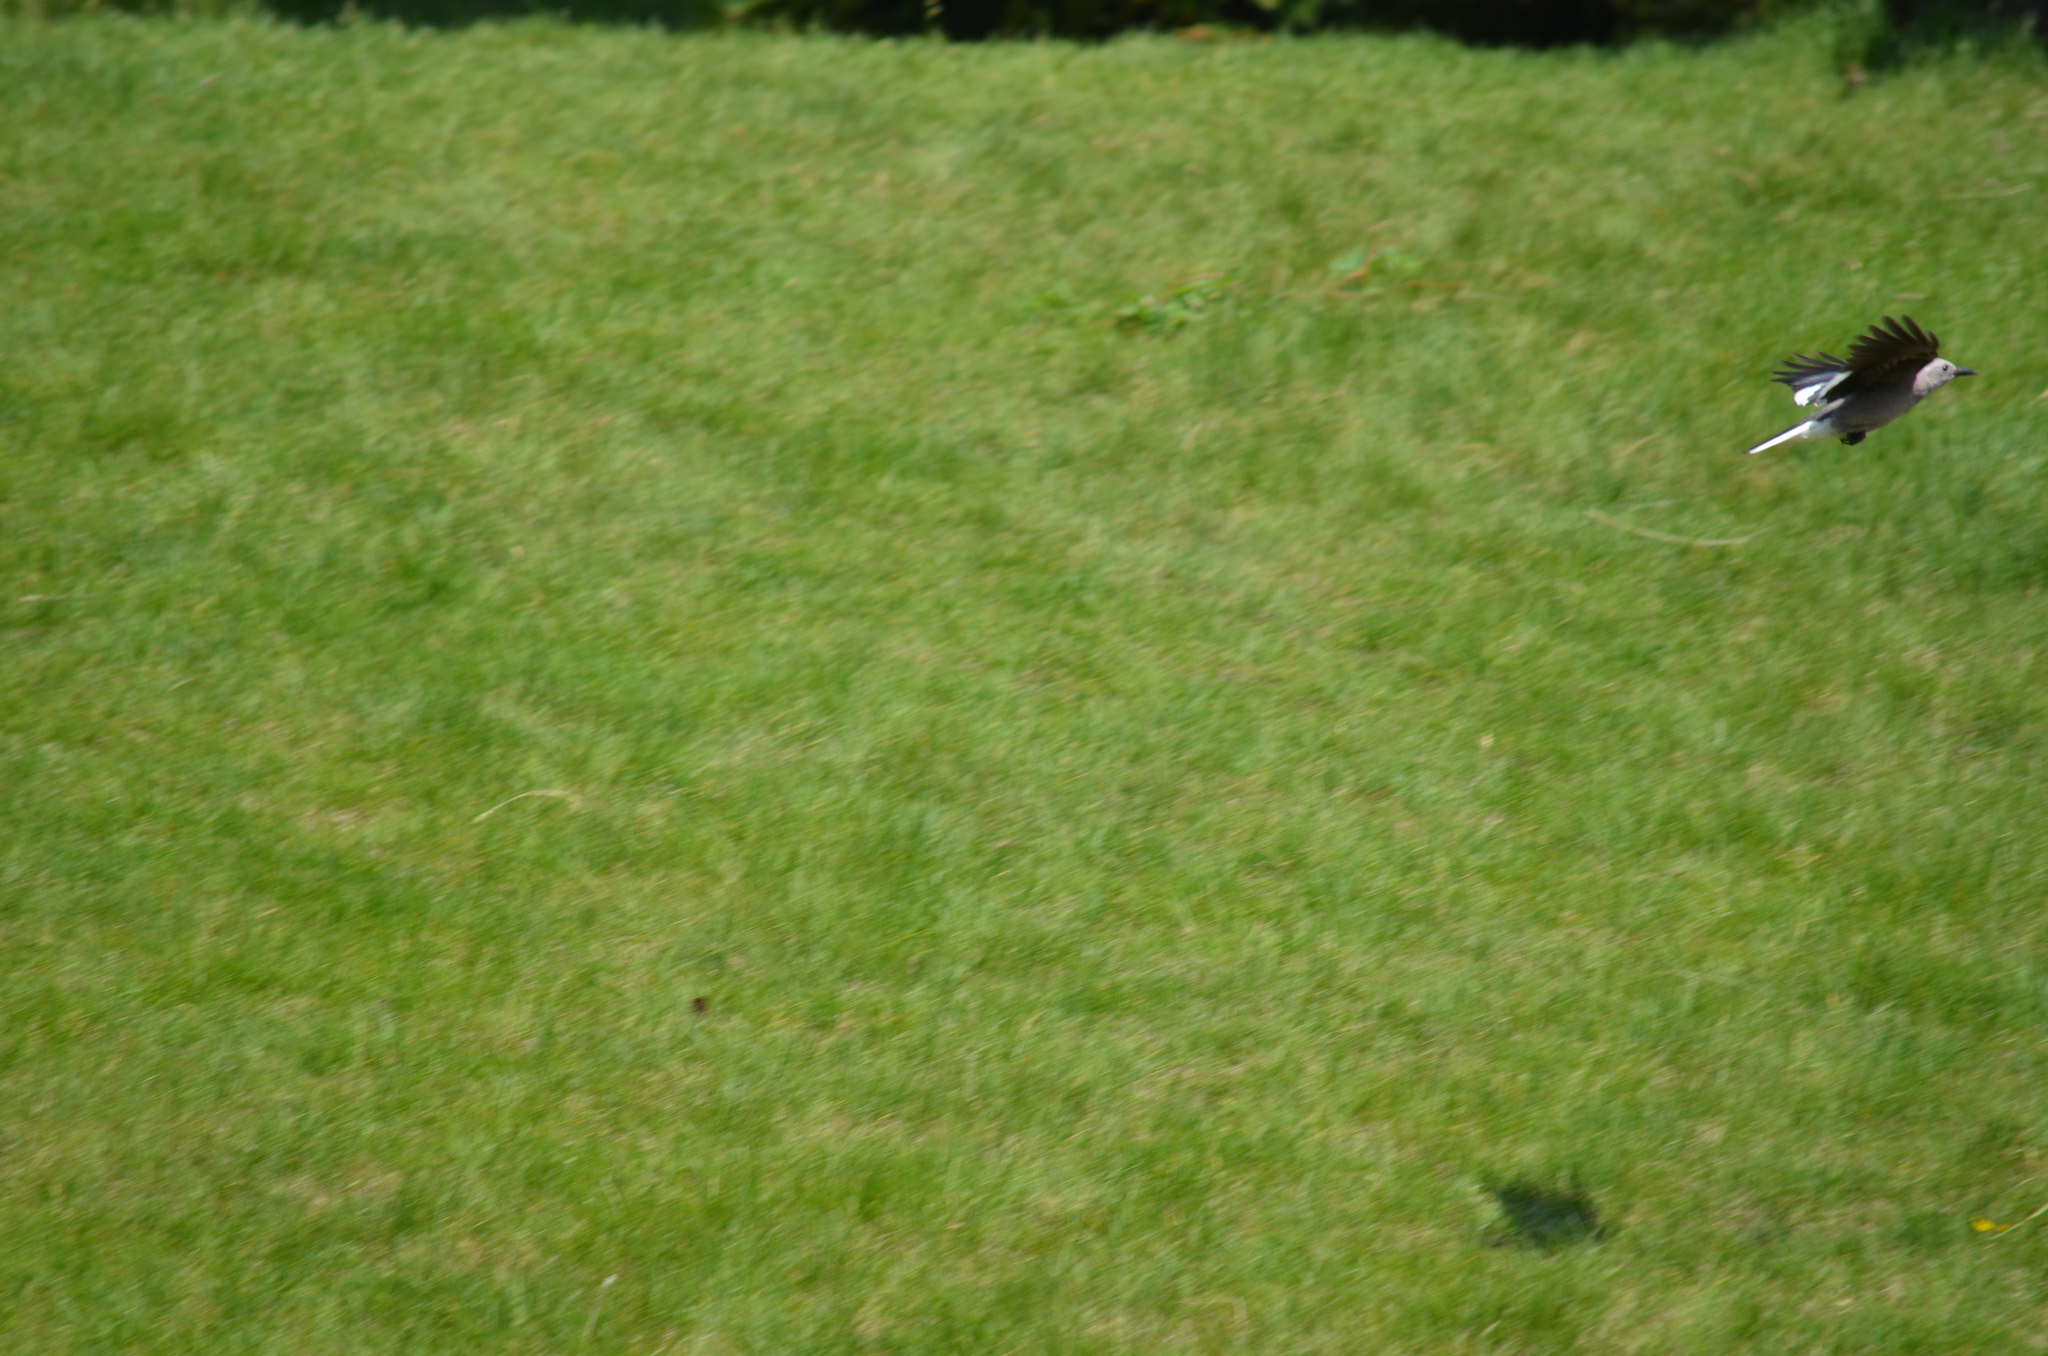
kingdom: Animalia
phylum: Chordata
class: Aves
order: Passeriformes
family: Corvidae
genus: Nucifraga
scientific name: Nucifraga columbiana
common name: Clark's nutcracker
